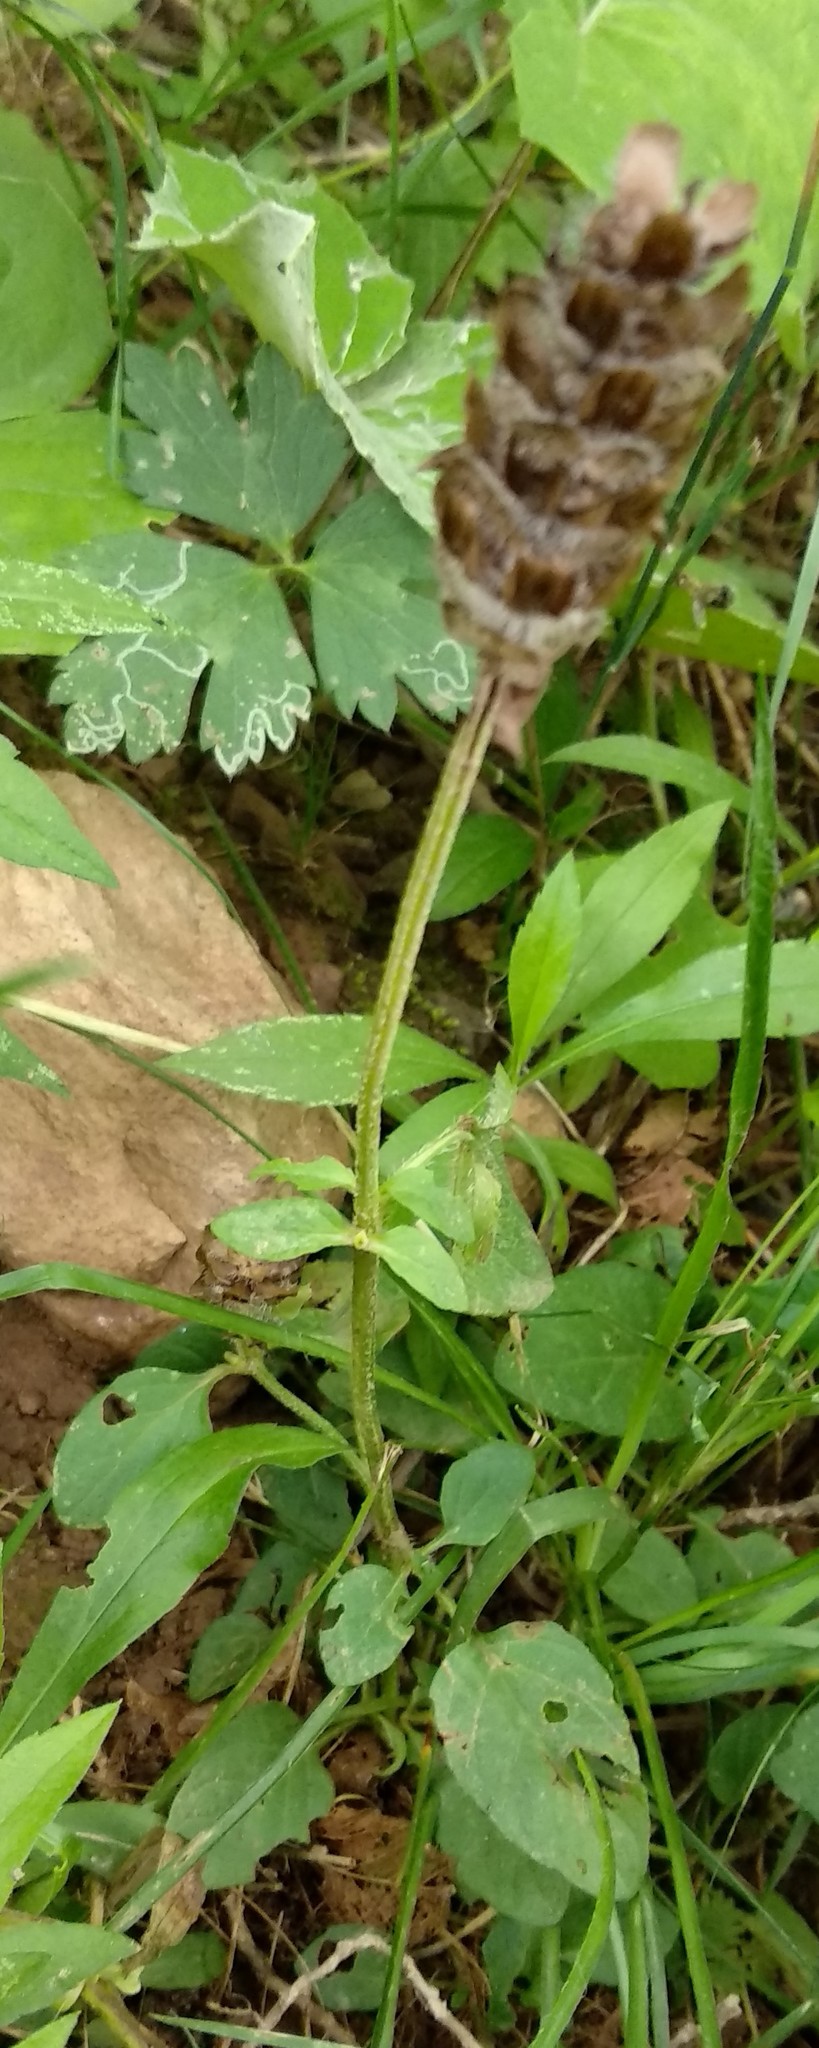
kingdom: Plantae
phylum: Tracheophyta
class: Magnoliopsida
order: Lamiales
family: Lamiaceae
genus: Prunella
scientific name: Prunella vulgaris
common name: Heal-all
